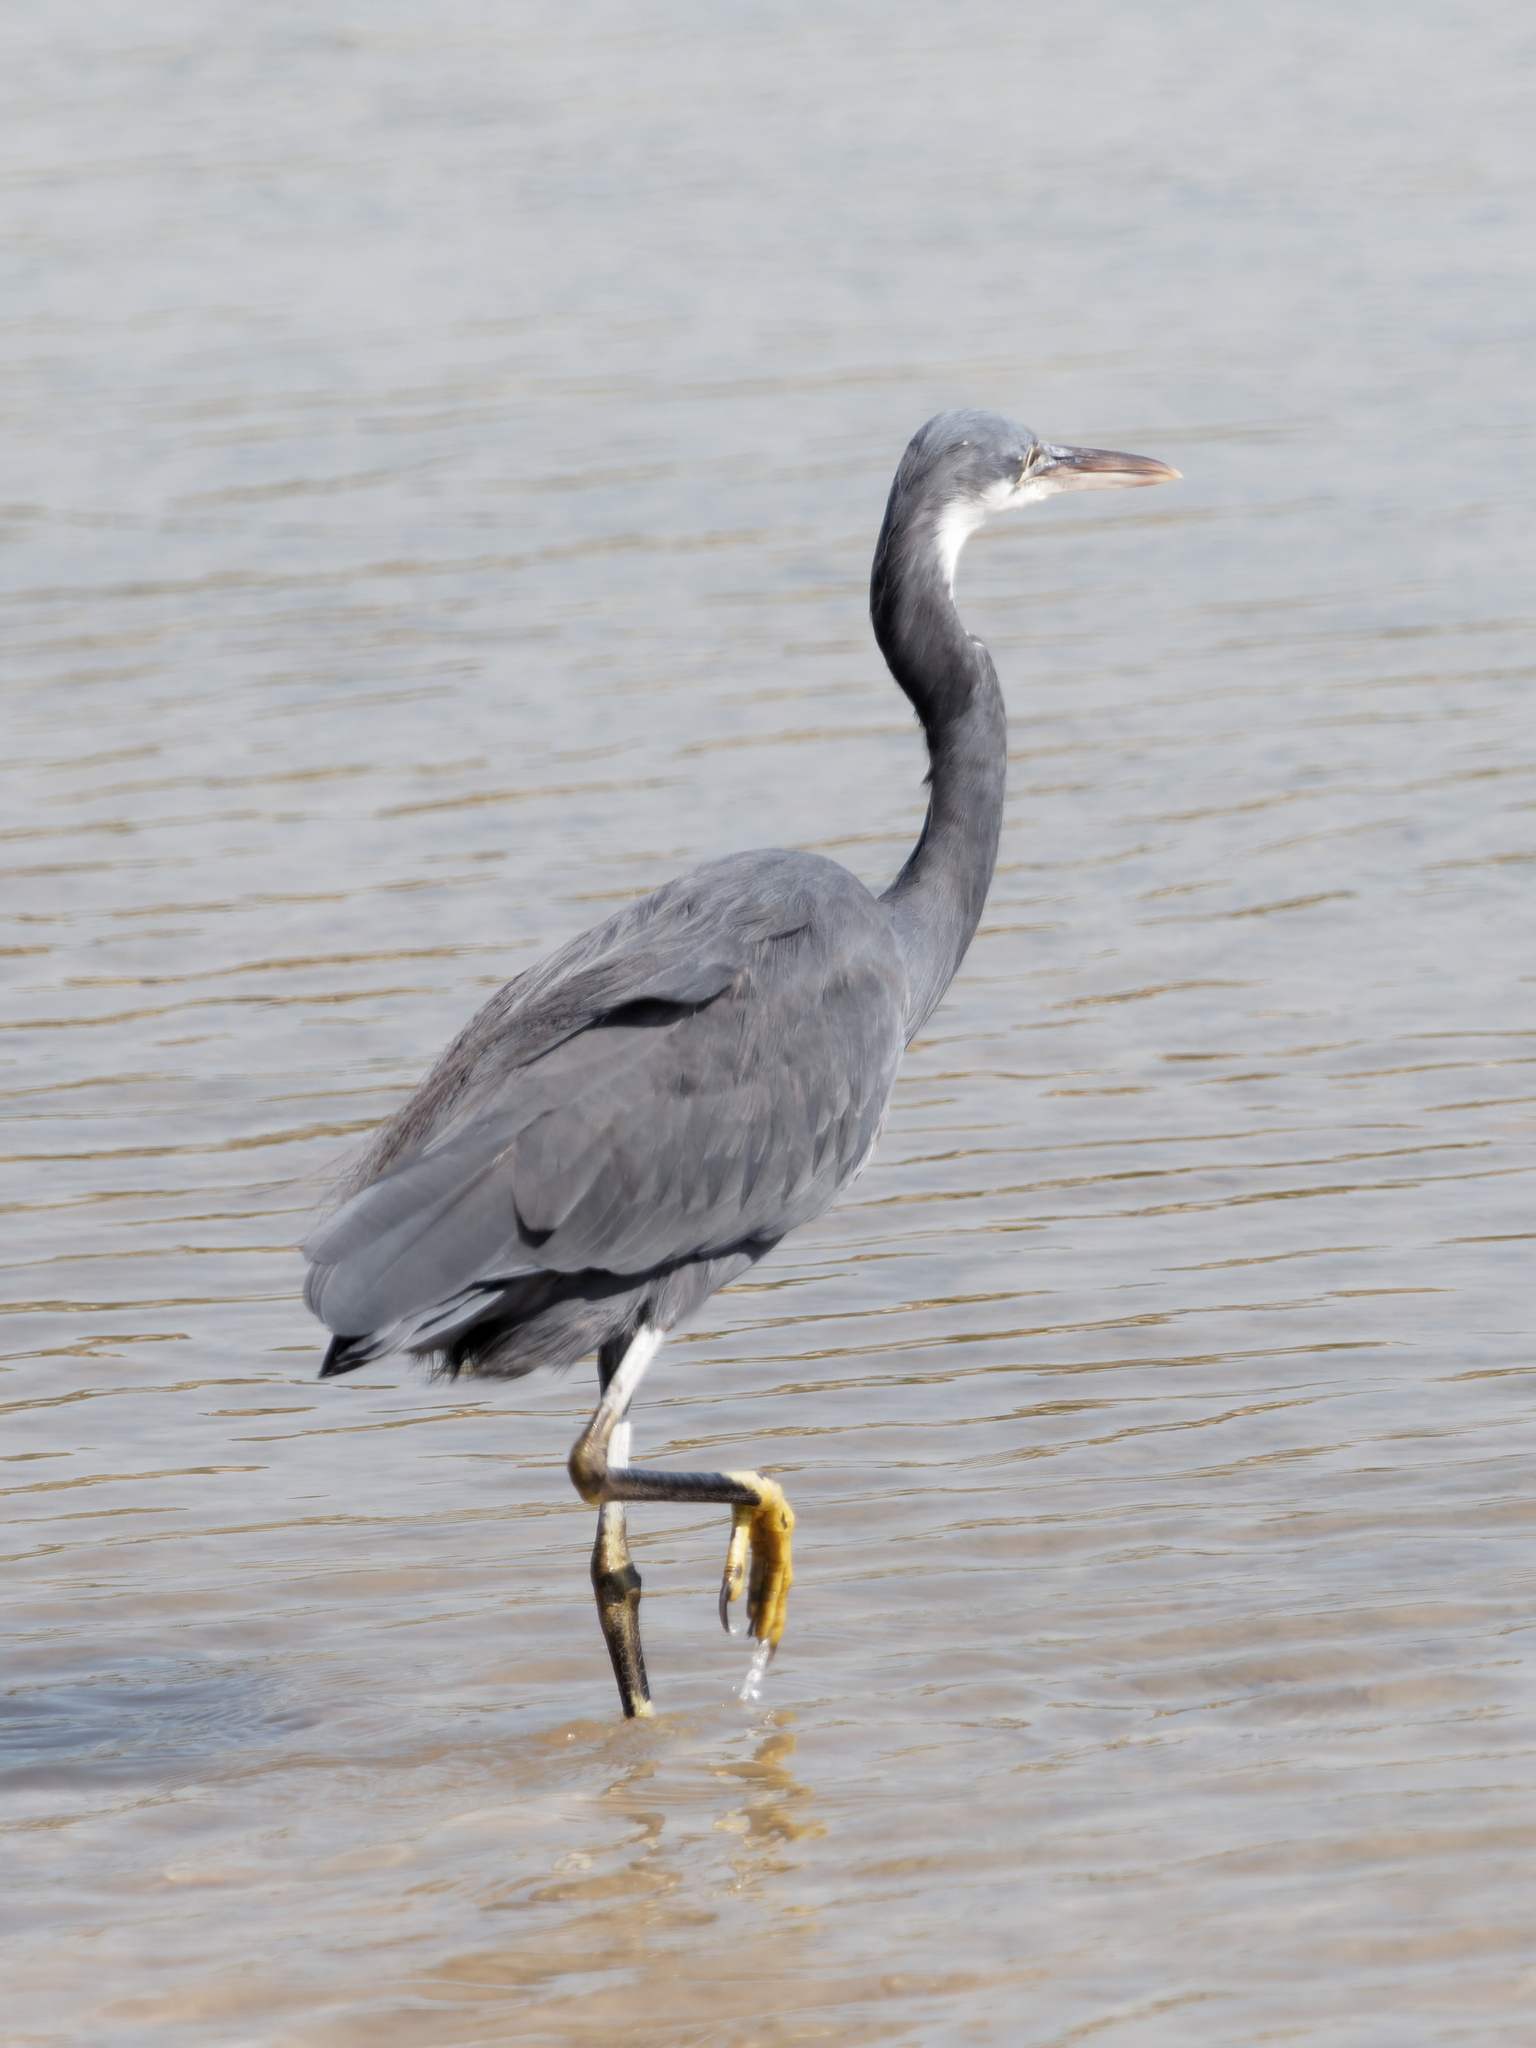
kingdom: Animalia
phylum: Chordata
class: Aves
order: Pelecaniformes
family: Ardeidae
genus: Egretta
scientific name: Egretta gularis
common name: Western reef-heron
